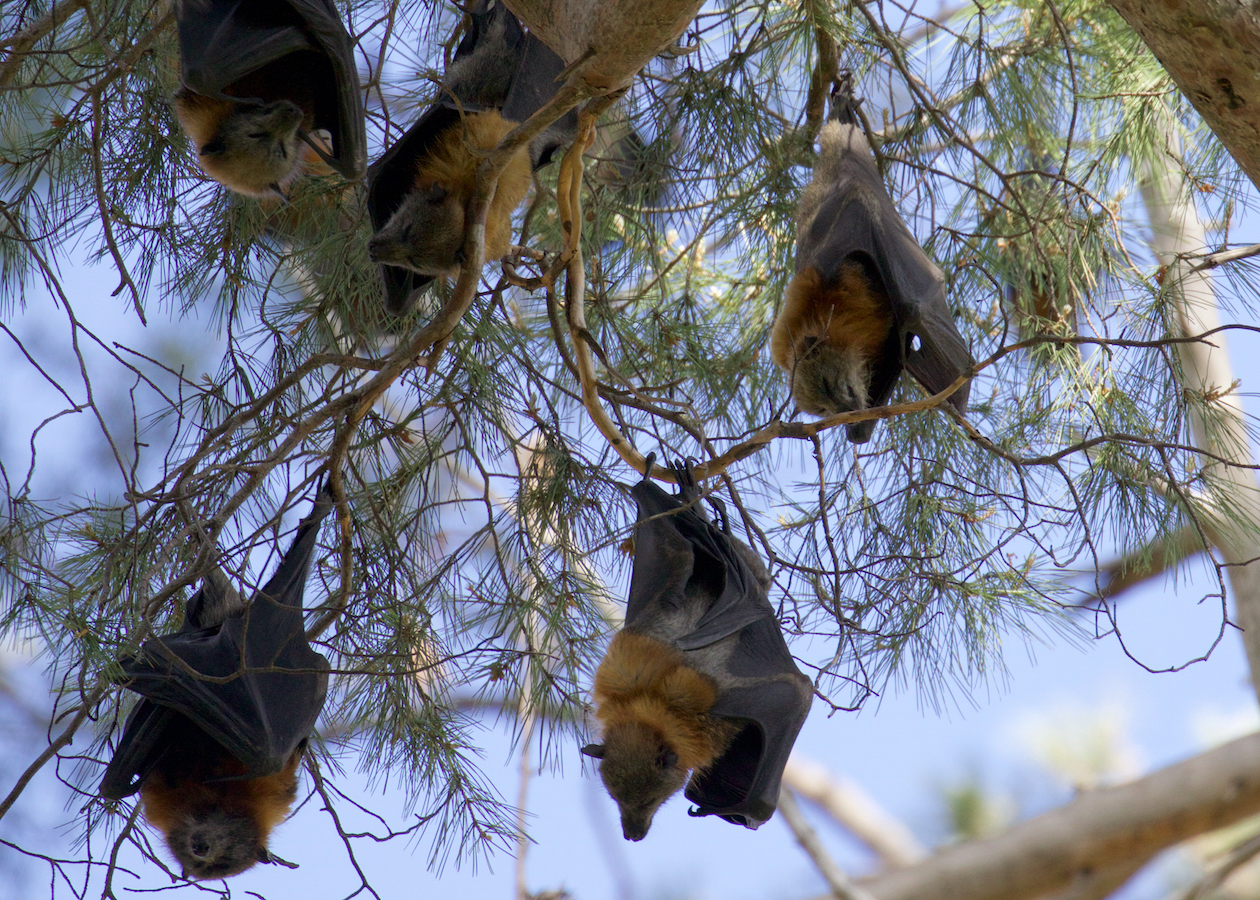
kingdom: Animalia
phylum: Chordata
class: Mammalia
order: Chiroptera
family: Pteropodidae
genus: Pteropus
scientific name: Pteropus poliocephalus
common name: Gray-headed flying fox
